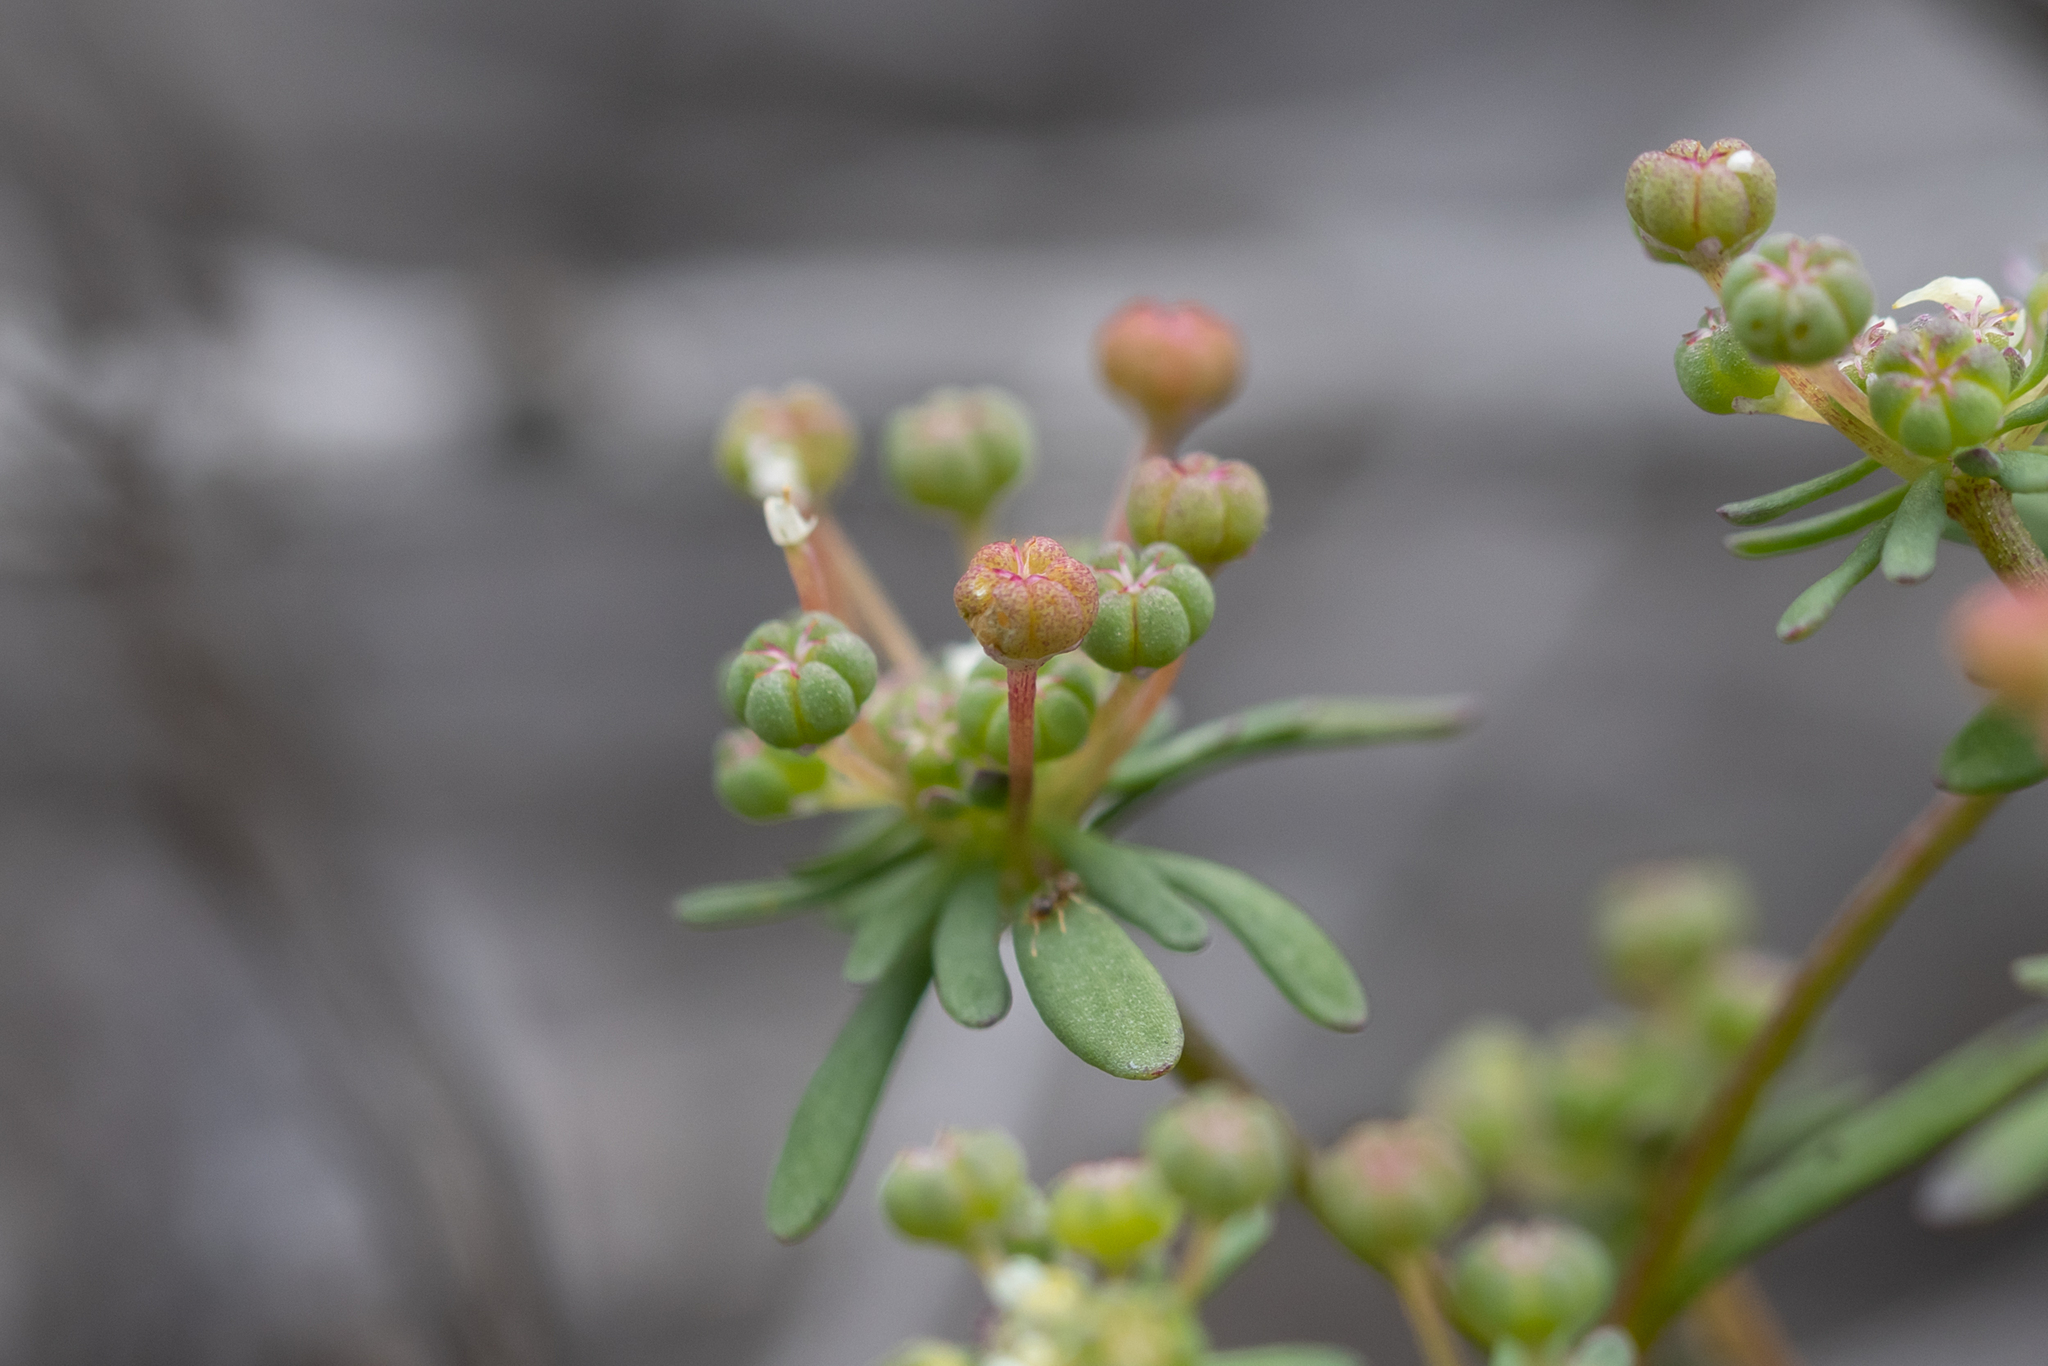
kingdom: Plantae
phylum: Tracheophyta
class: Magnoliopsida
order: Malpighiales
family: Phyllanthaceae
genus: Poranthera
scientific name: Poranthera microphylla
